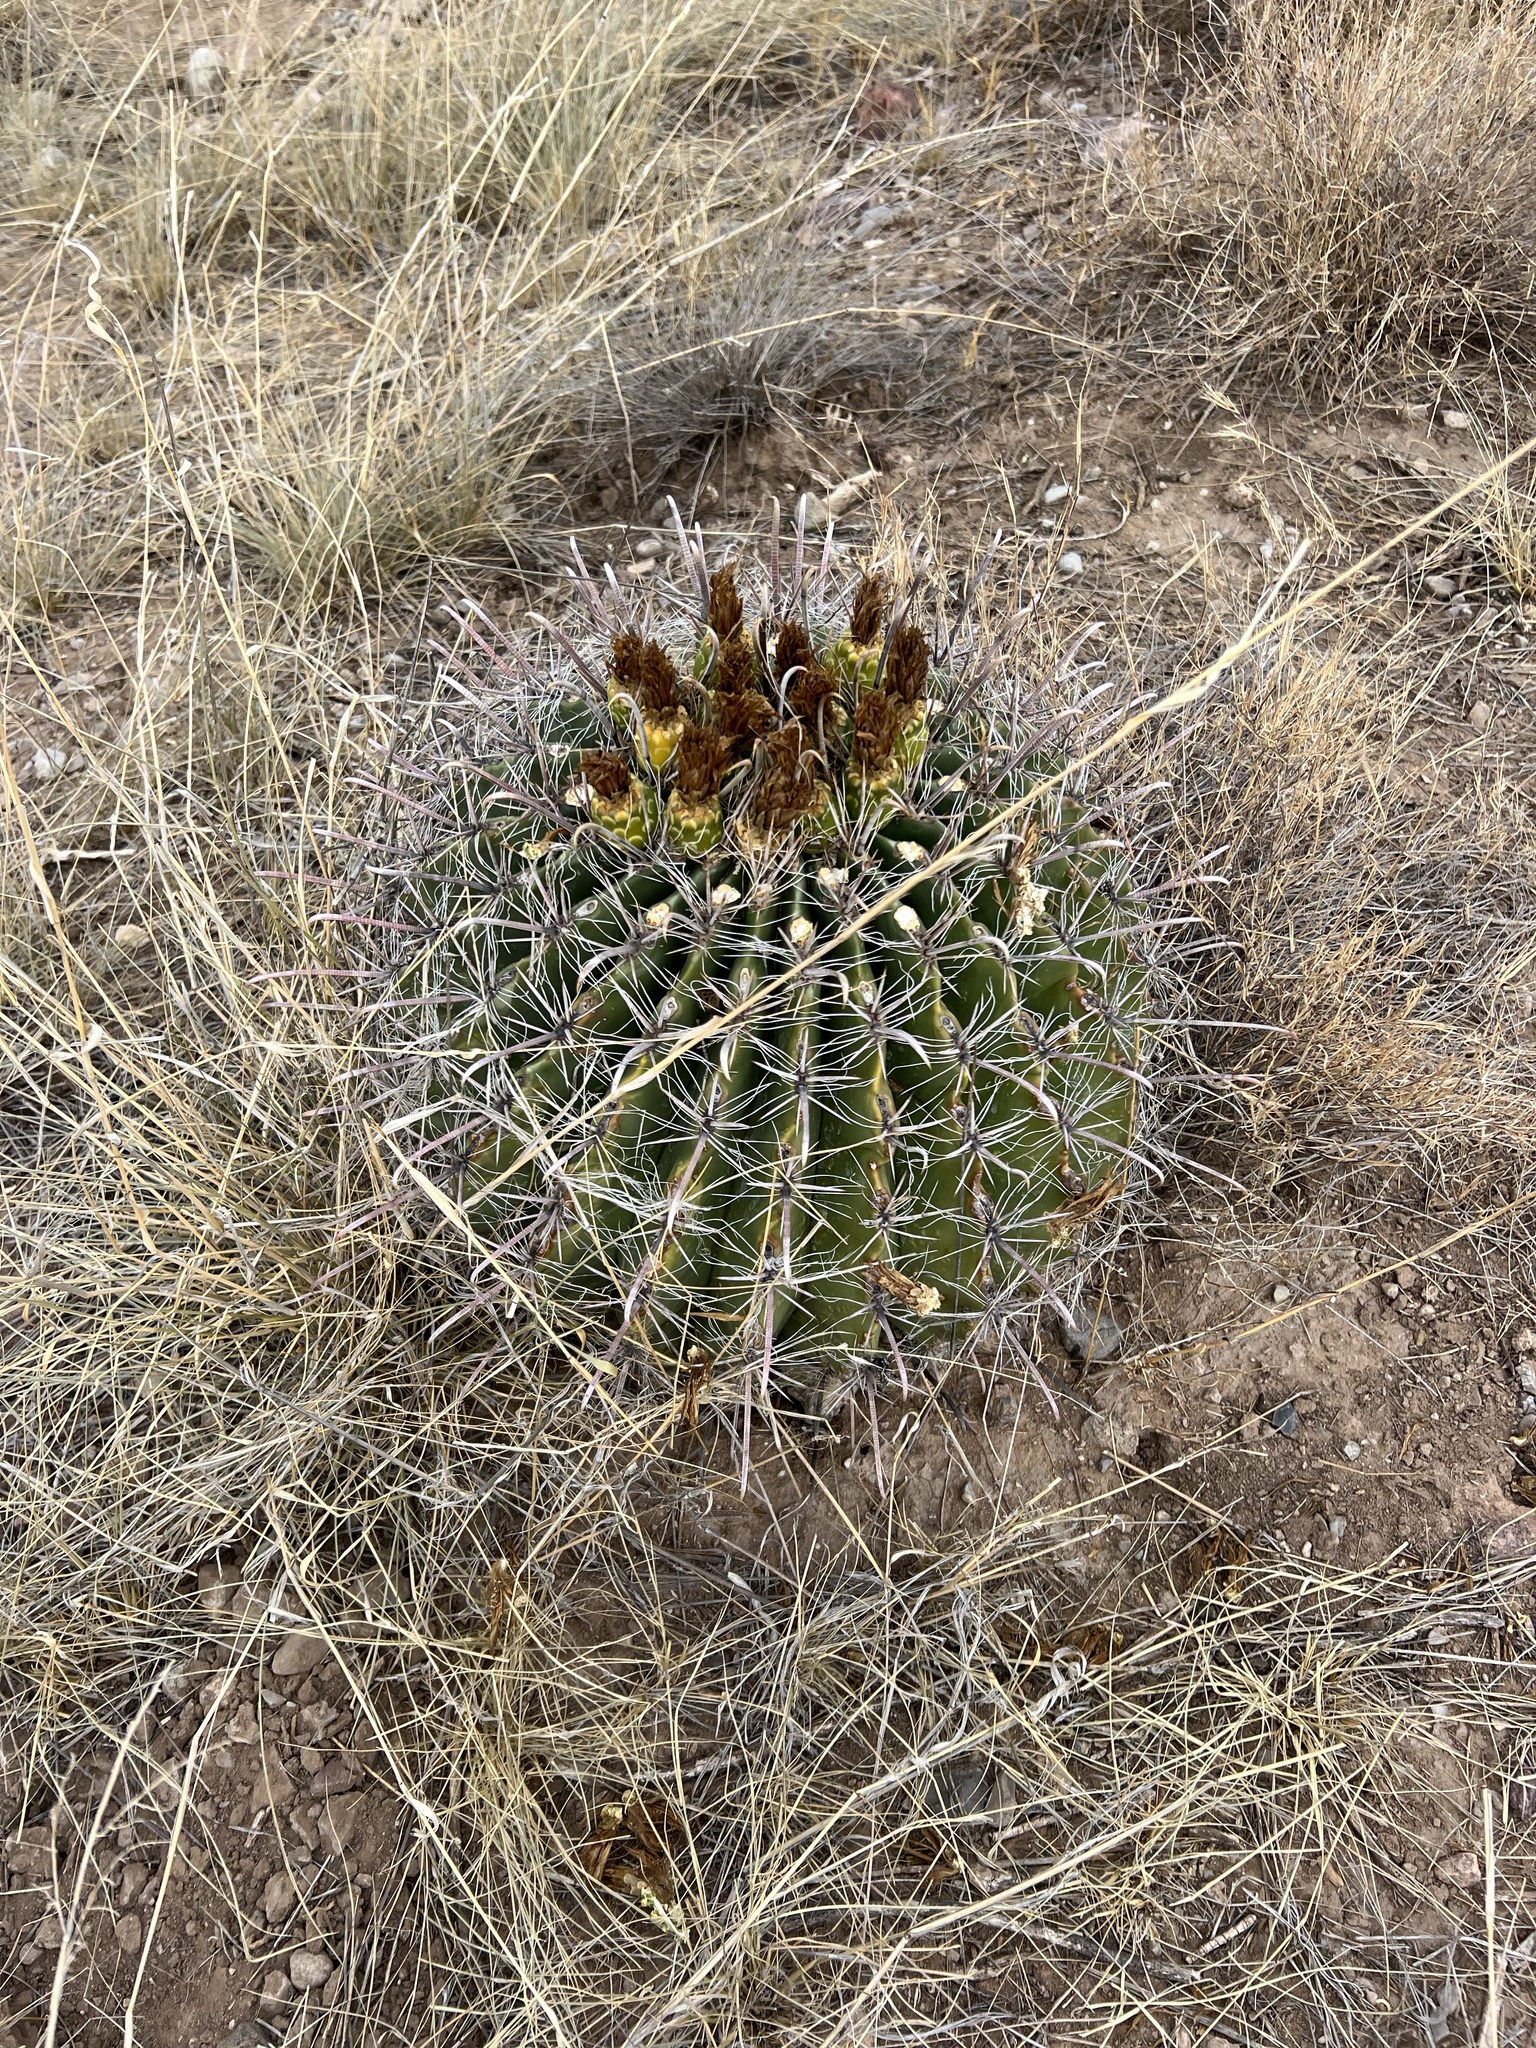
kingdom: Plantae
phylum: Tracheophyta
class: Magnoliopsida
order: Caryophyllales
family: Cactaceae
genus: Ferocactus
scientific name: Ferocactus wislizeni
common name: Candy barrel cactus
